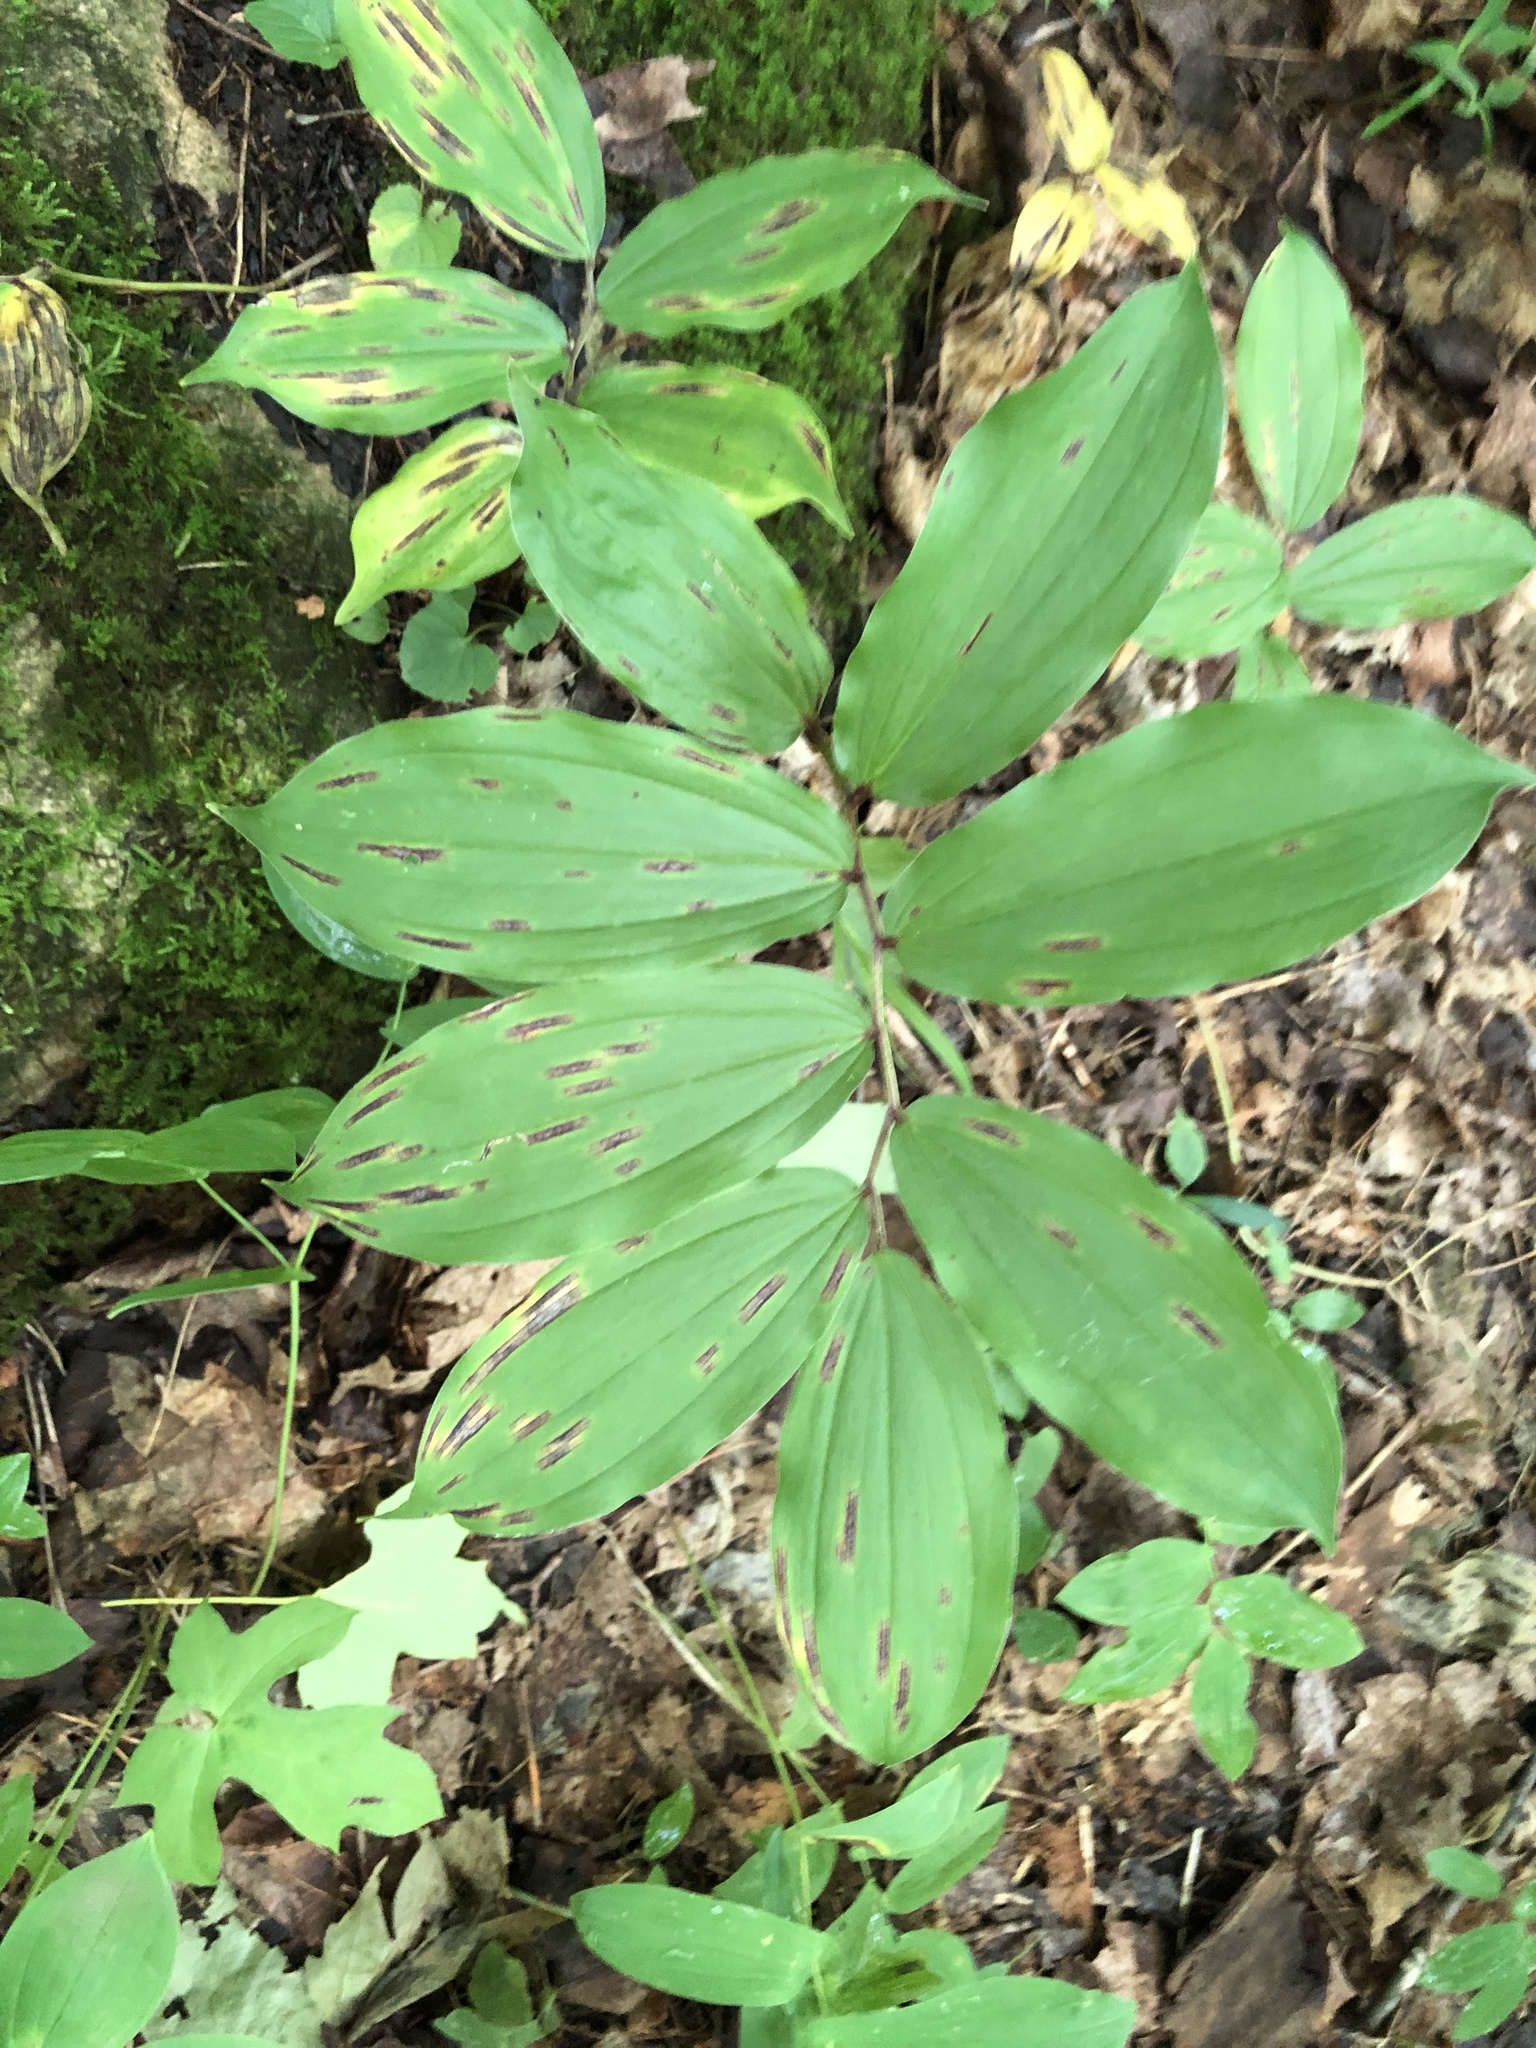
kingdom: Plantae
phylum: Tracheophyta
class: Liliopsida
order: Asparagales
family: Asparagaceae
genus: Maianthemum
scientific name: Maianthemum racemosum
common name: False spikenard
